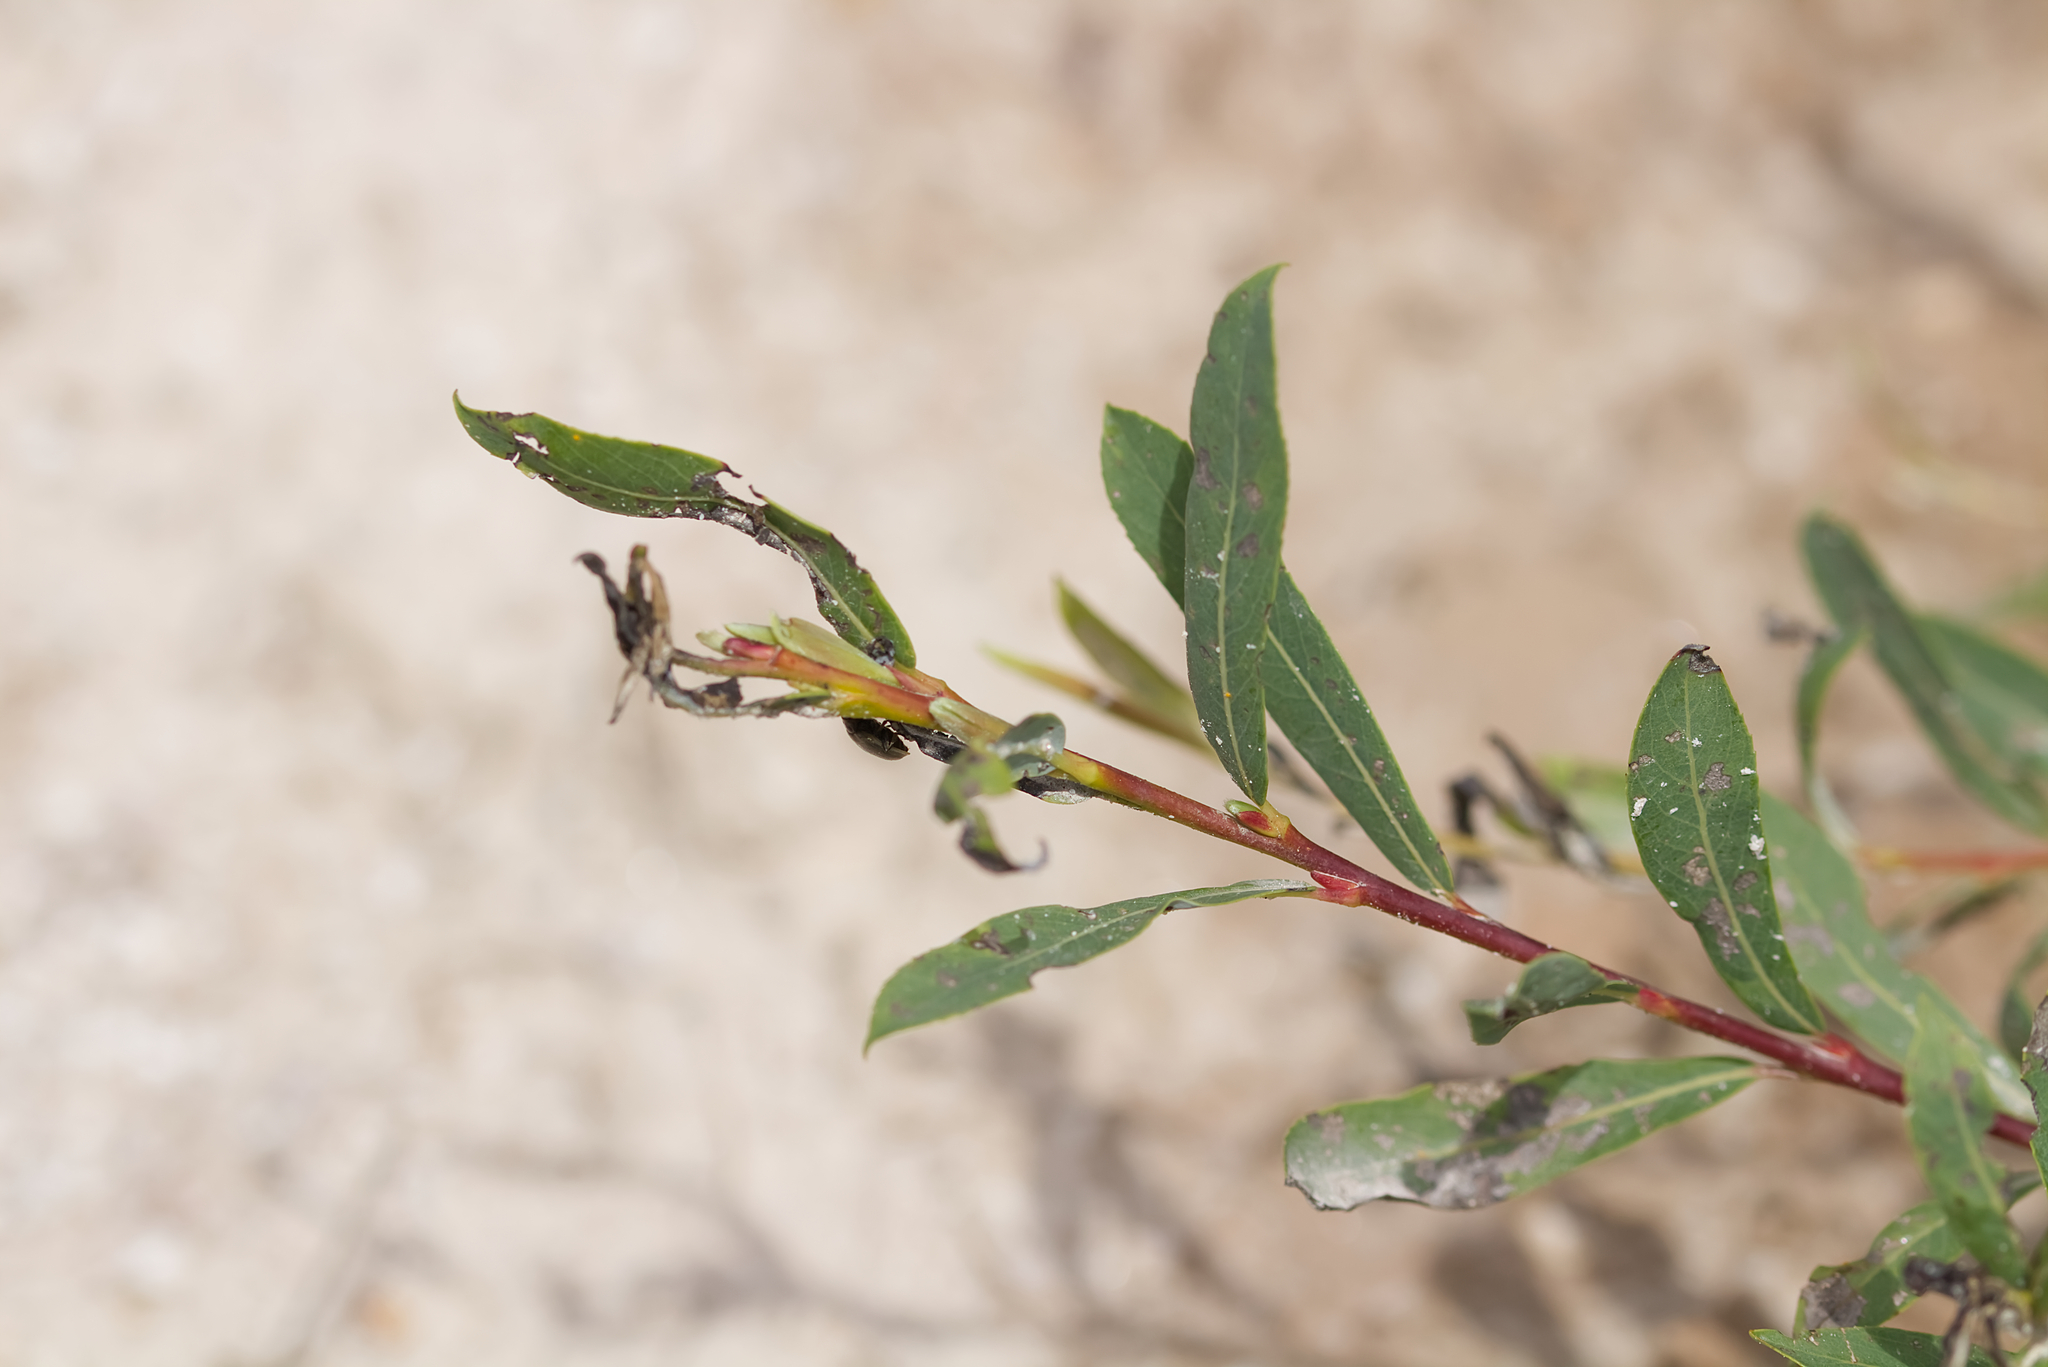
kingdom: Plantae
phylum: Tracheophyta
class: Magnoliopsida
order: Malpighiales
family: Salicaceae
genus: Salix
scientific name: Salix purpurea
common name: Purple willow
